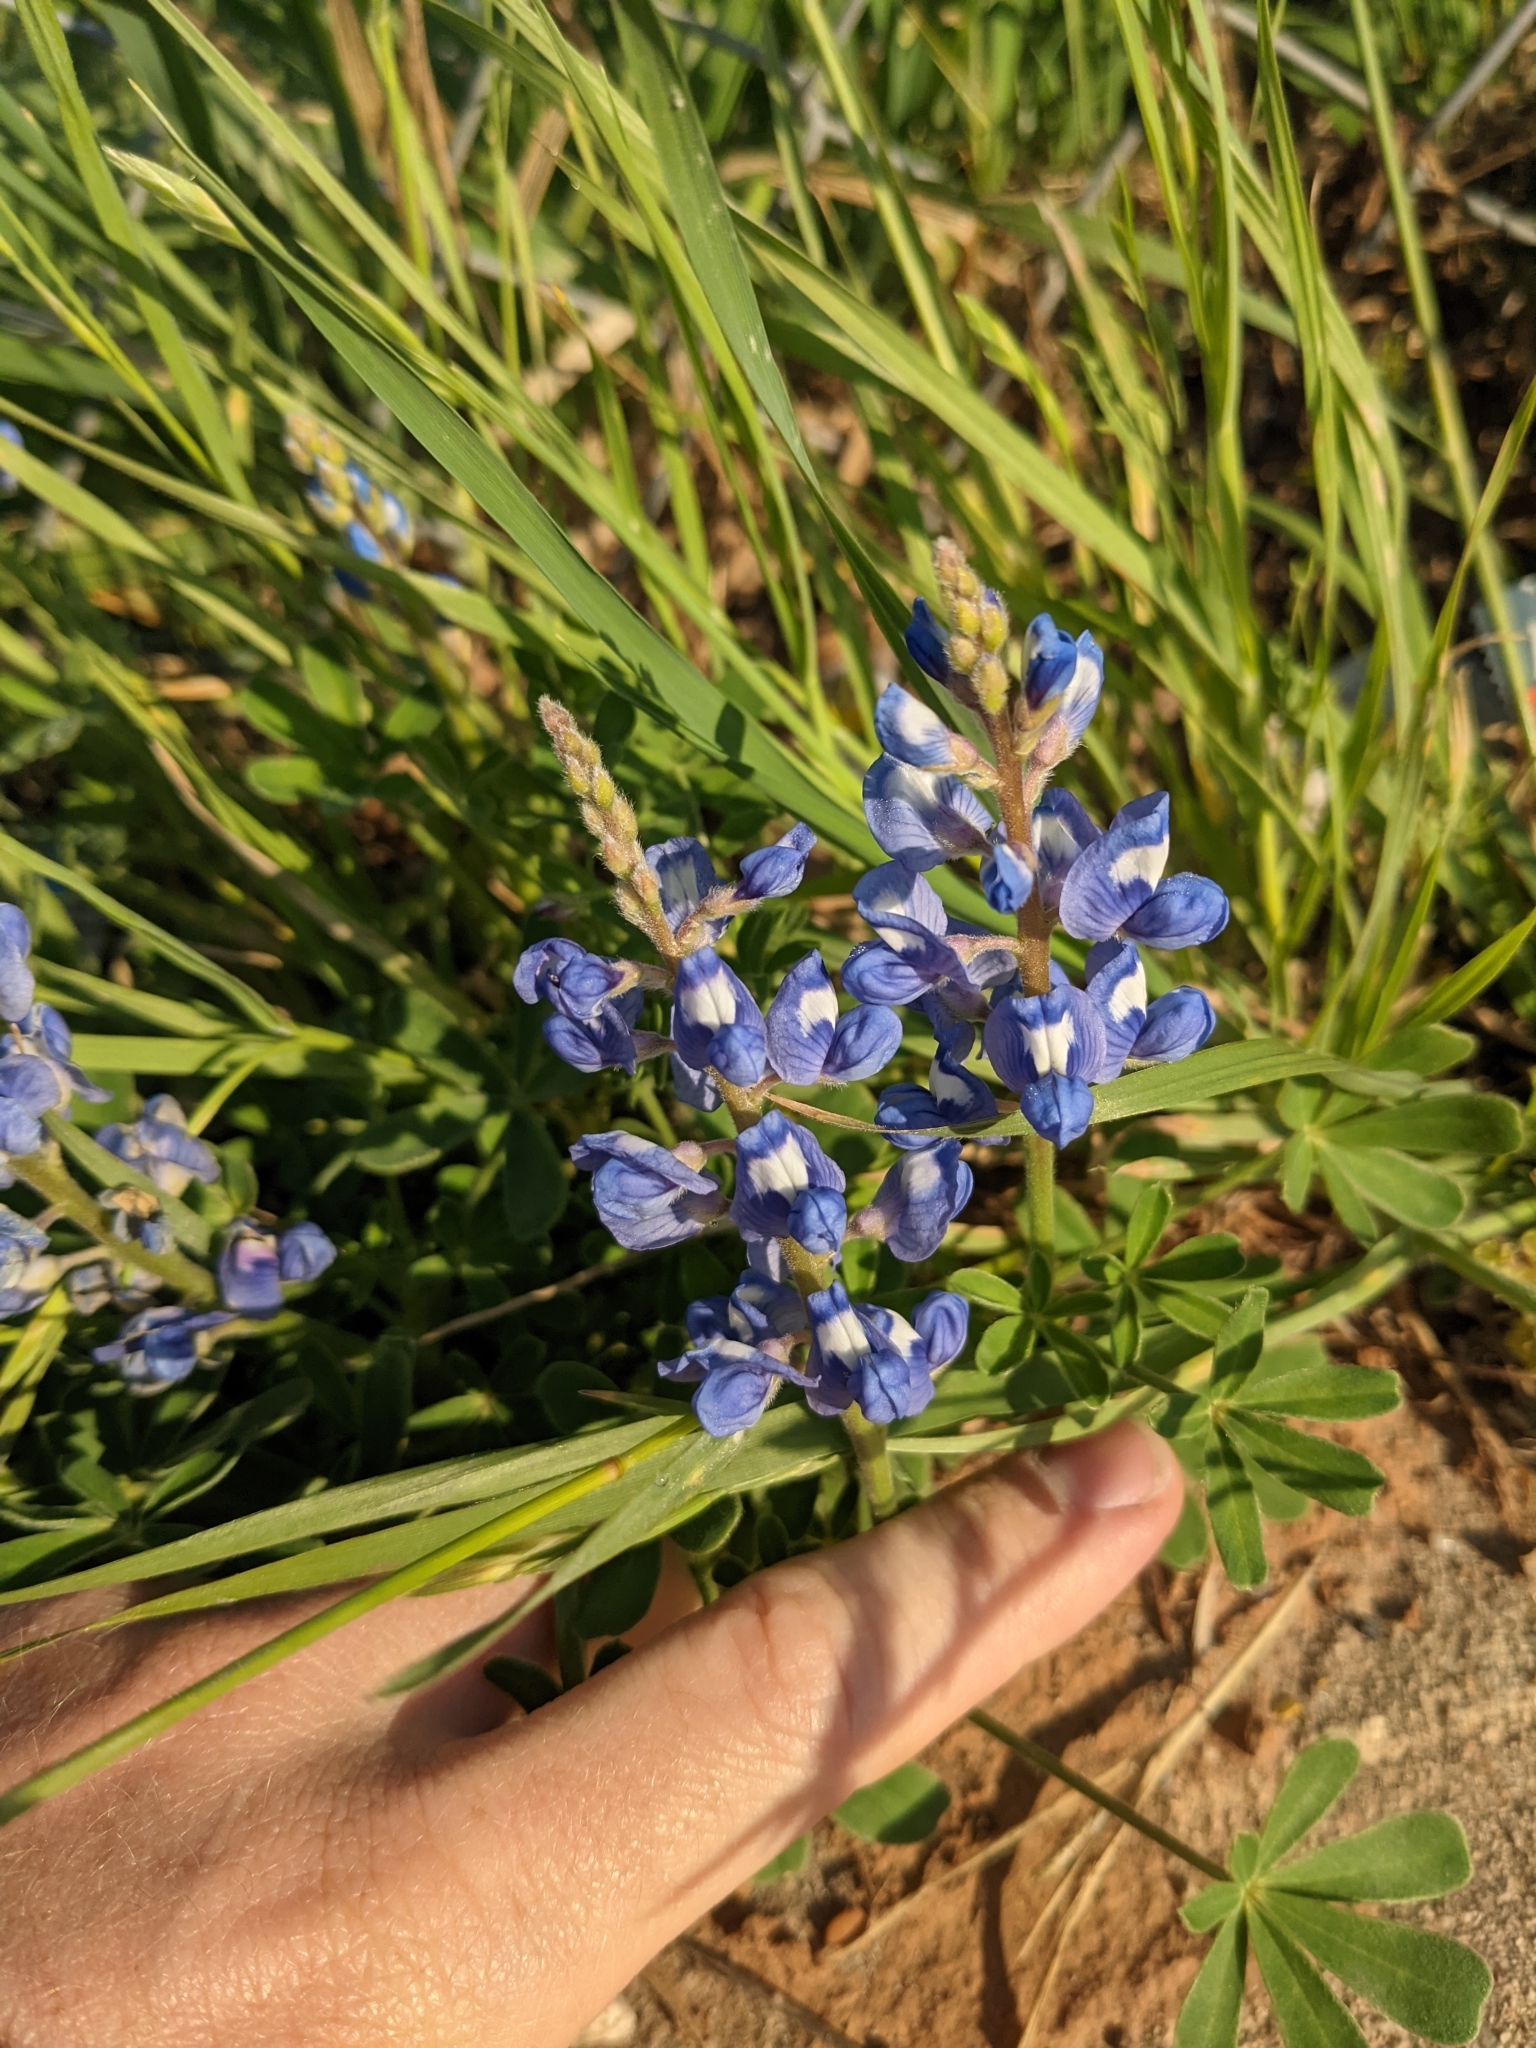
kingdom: Plantae
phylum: Tracheophyta
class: Magnoliopsida
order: Fabales
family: Fabaceae
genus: Lupinus
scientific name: Lupinus subcarnosus
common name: Texas bluebonnet
